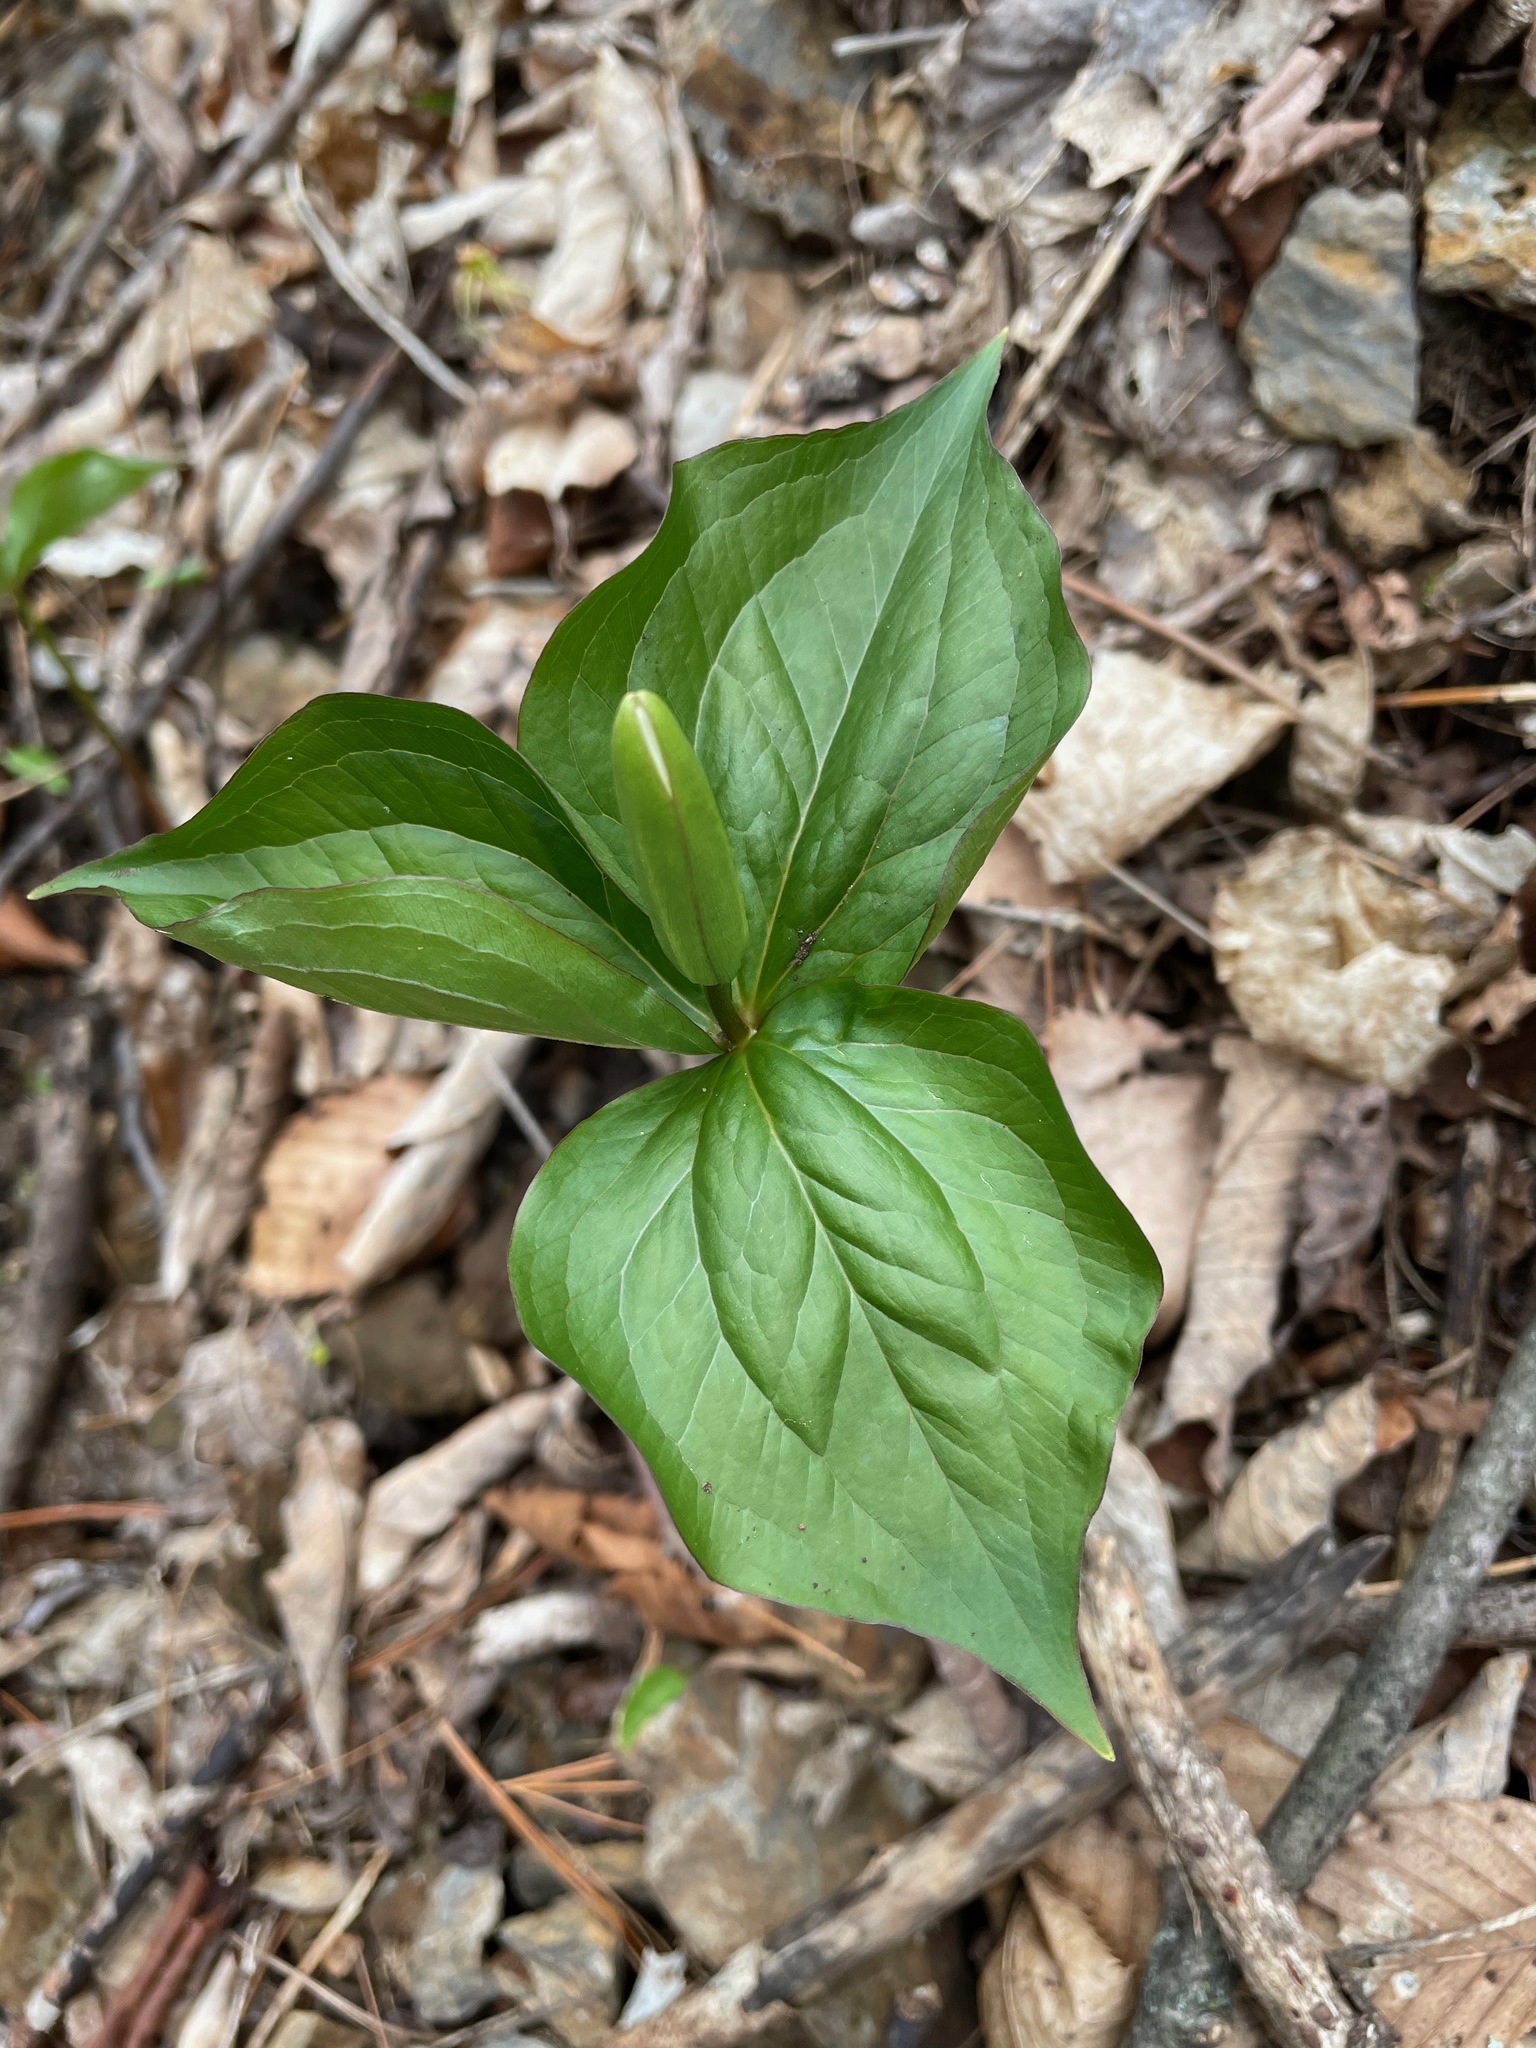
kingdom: Plantae
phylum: Tracheophyta
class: Liliopsida
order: Liliales
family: Melanthiaceae
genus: Trillium
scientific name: Trillium grandiflorum
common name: Great white trillium
